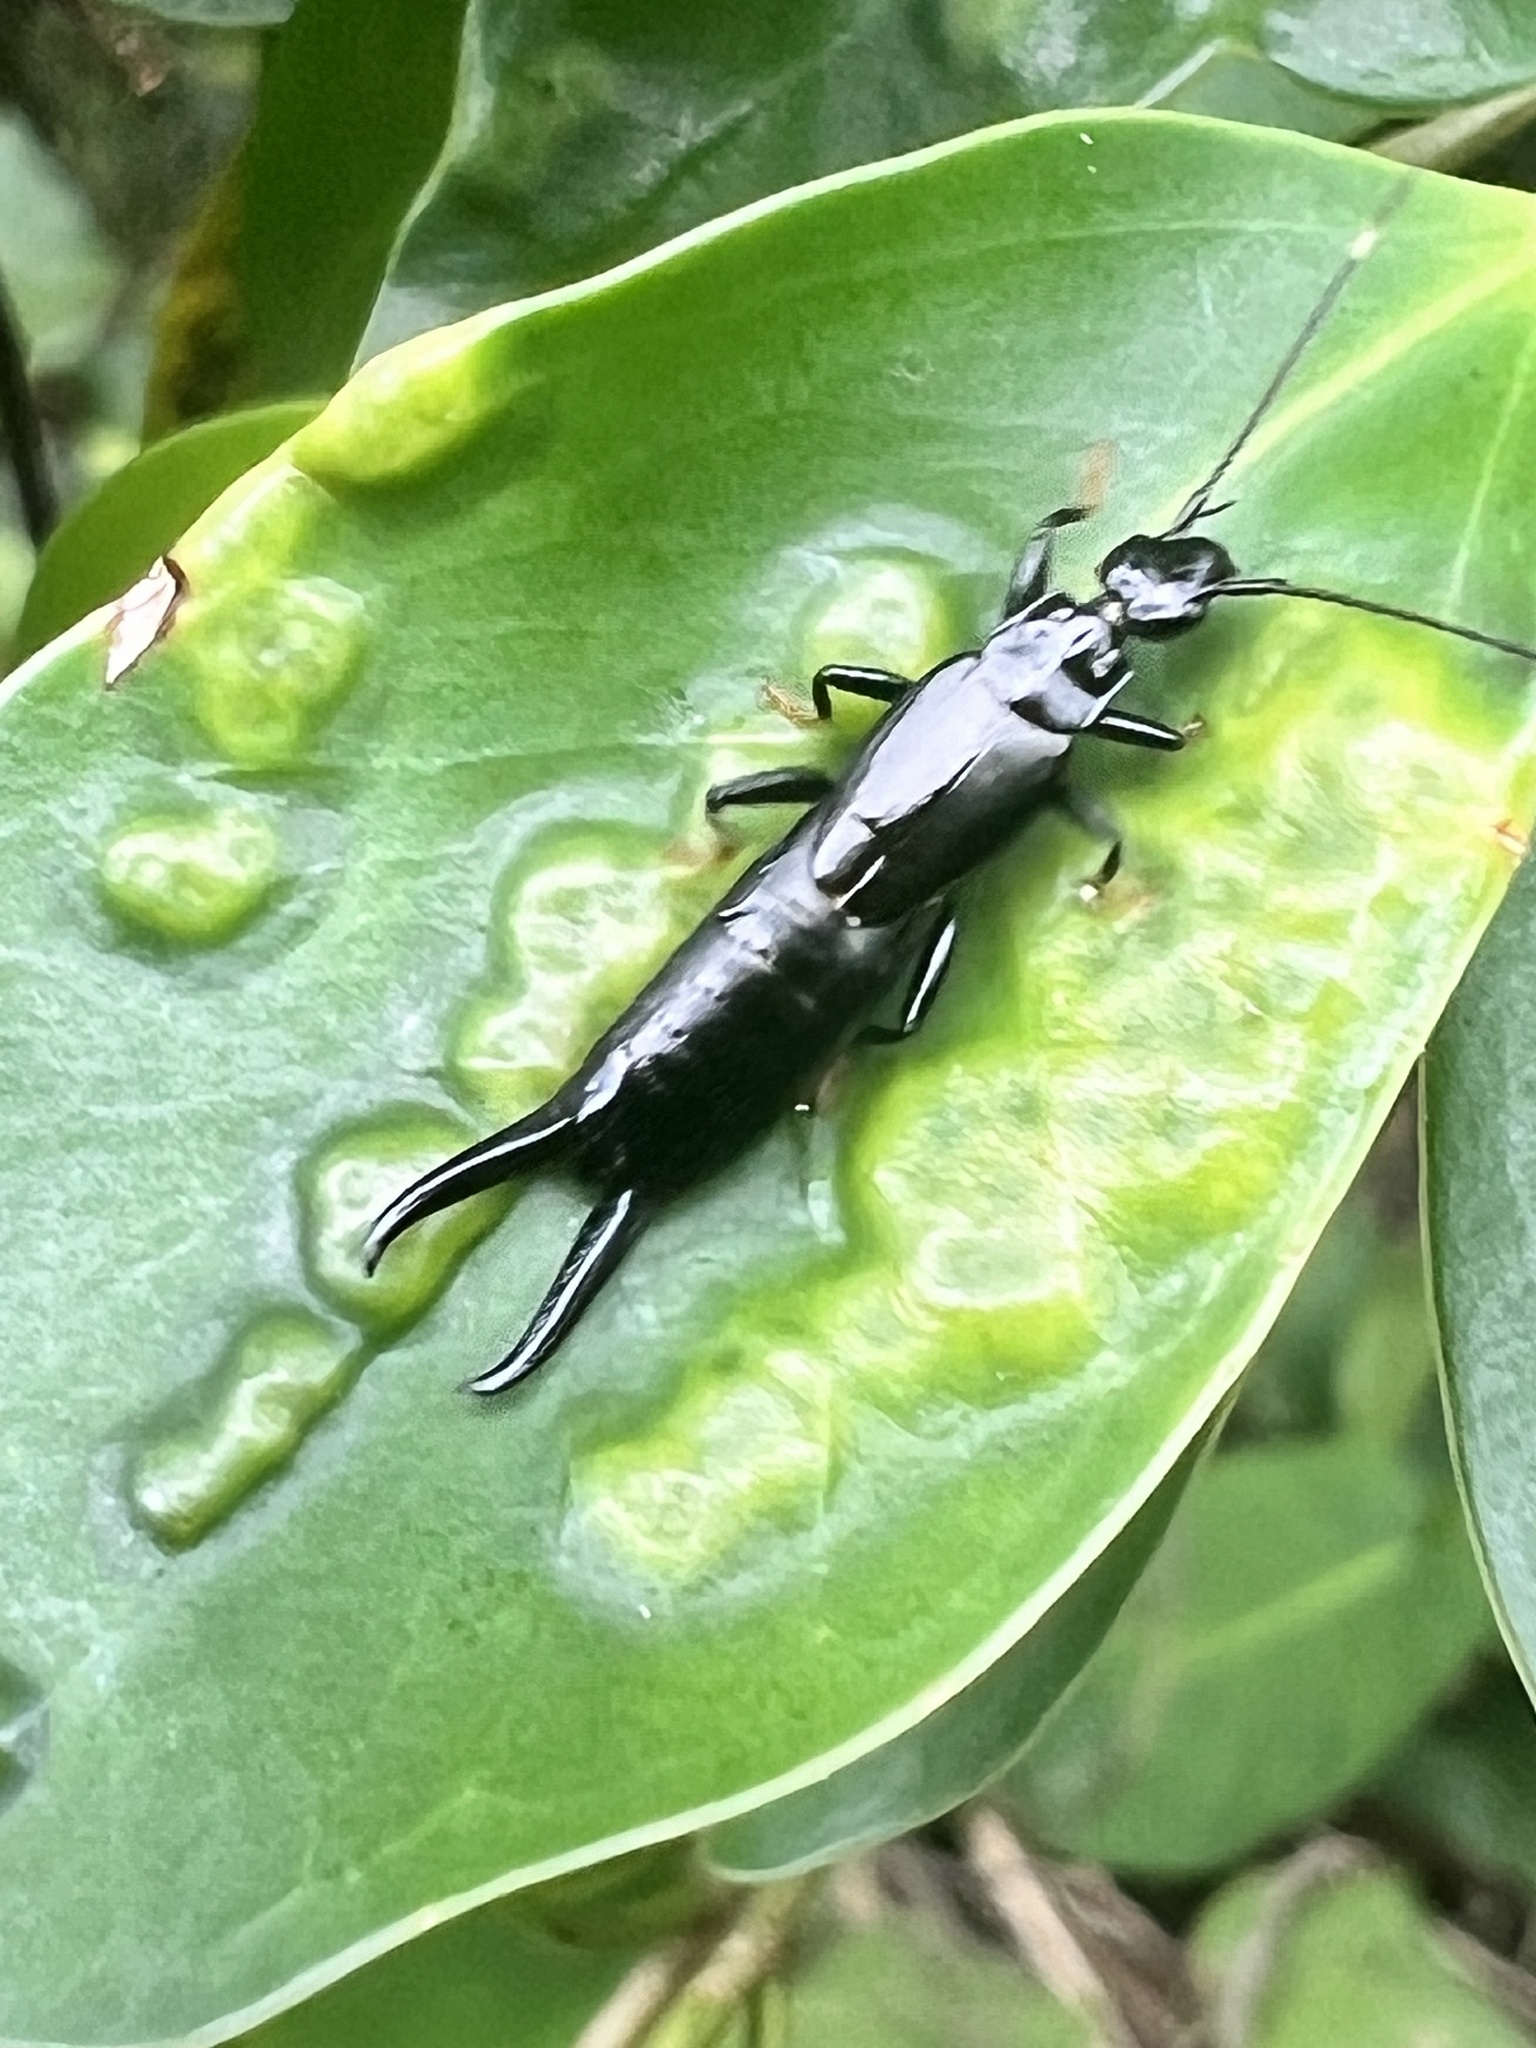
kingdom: Animalia
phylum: Arthropoda
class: Insecta
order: Dermaptera
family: Chelisochidae
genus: Chelisoches
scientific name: Chelisoches morio
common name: Black earwig
